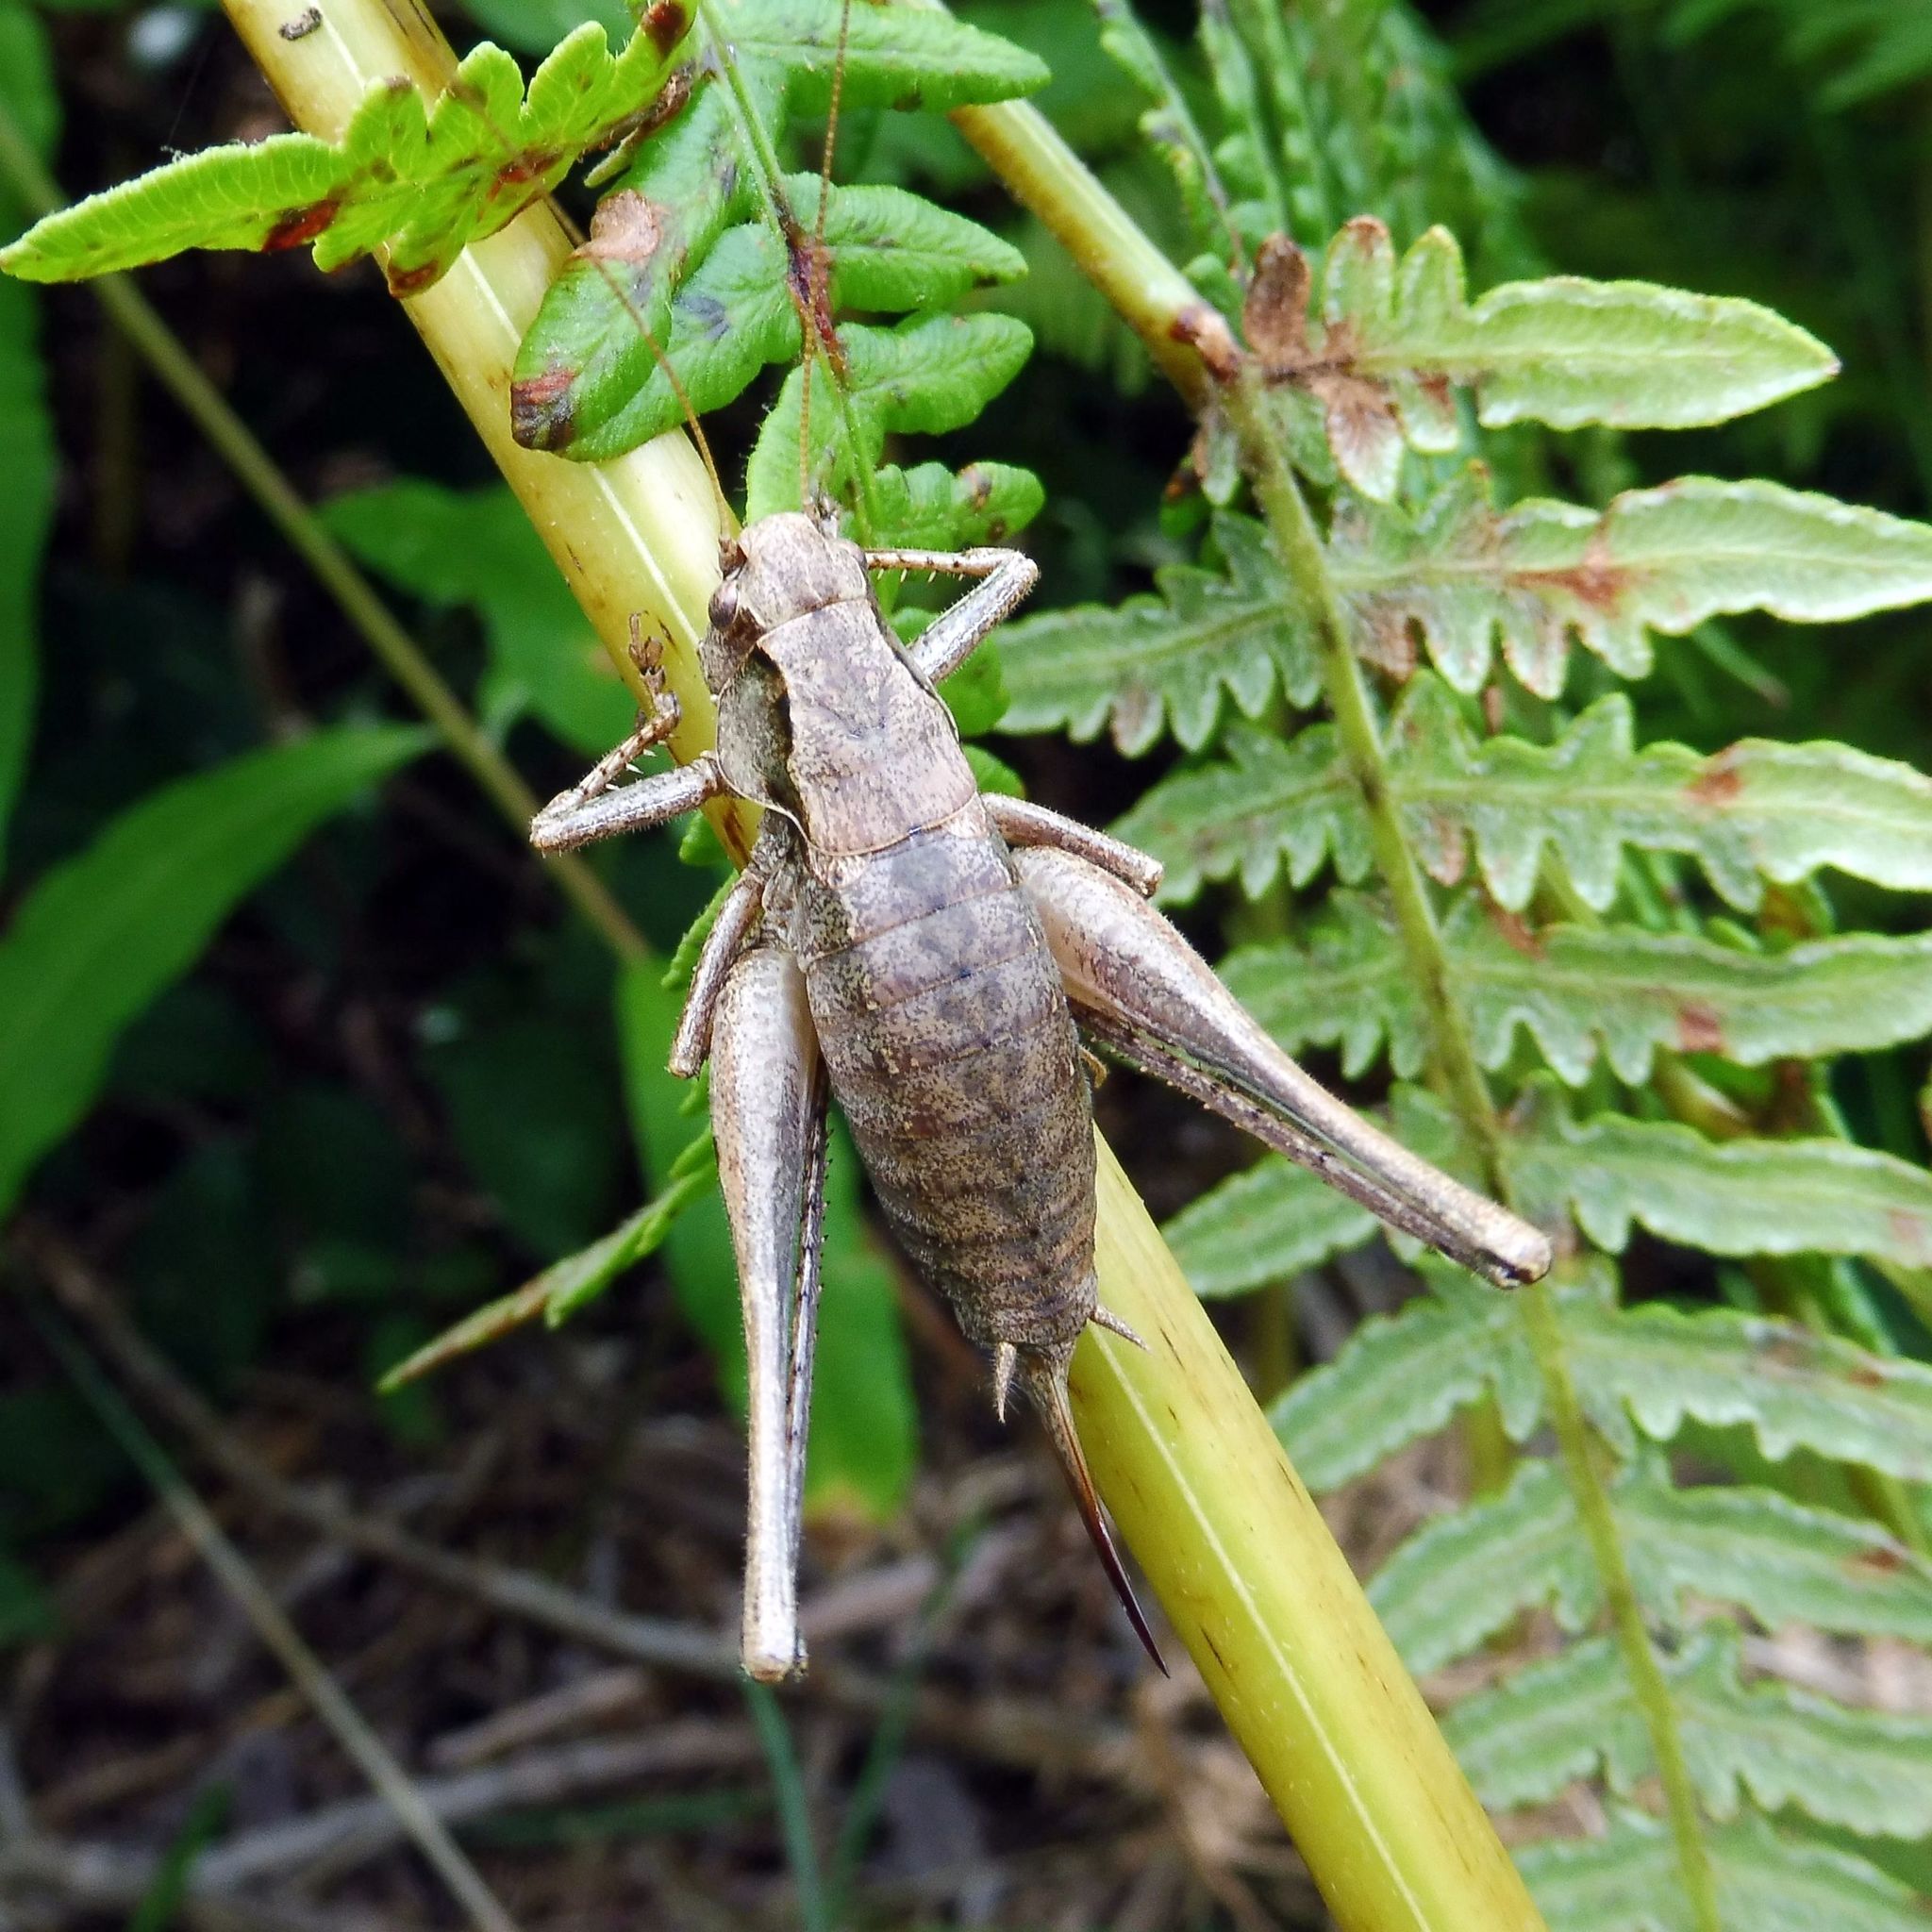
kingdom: Animalia
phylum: Arthropoda
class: Insecta
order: Orthoptera
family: Tettigoniidae
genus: Pholidoptera
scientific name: Pholidoptera griseoaptera
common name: Dark bush-cricket
